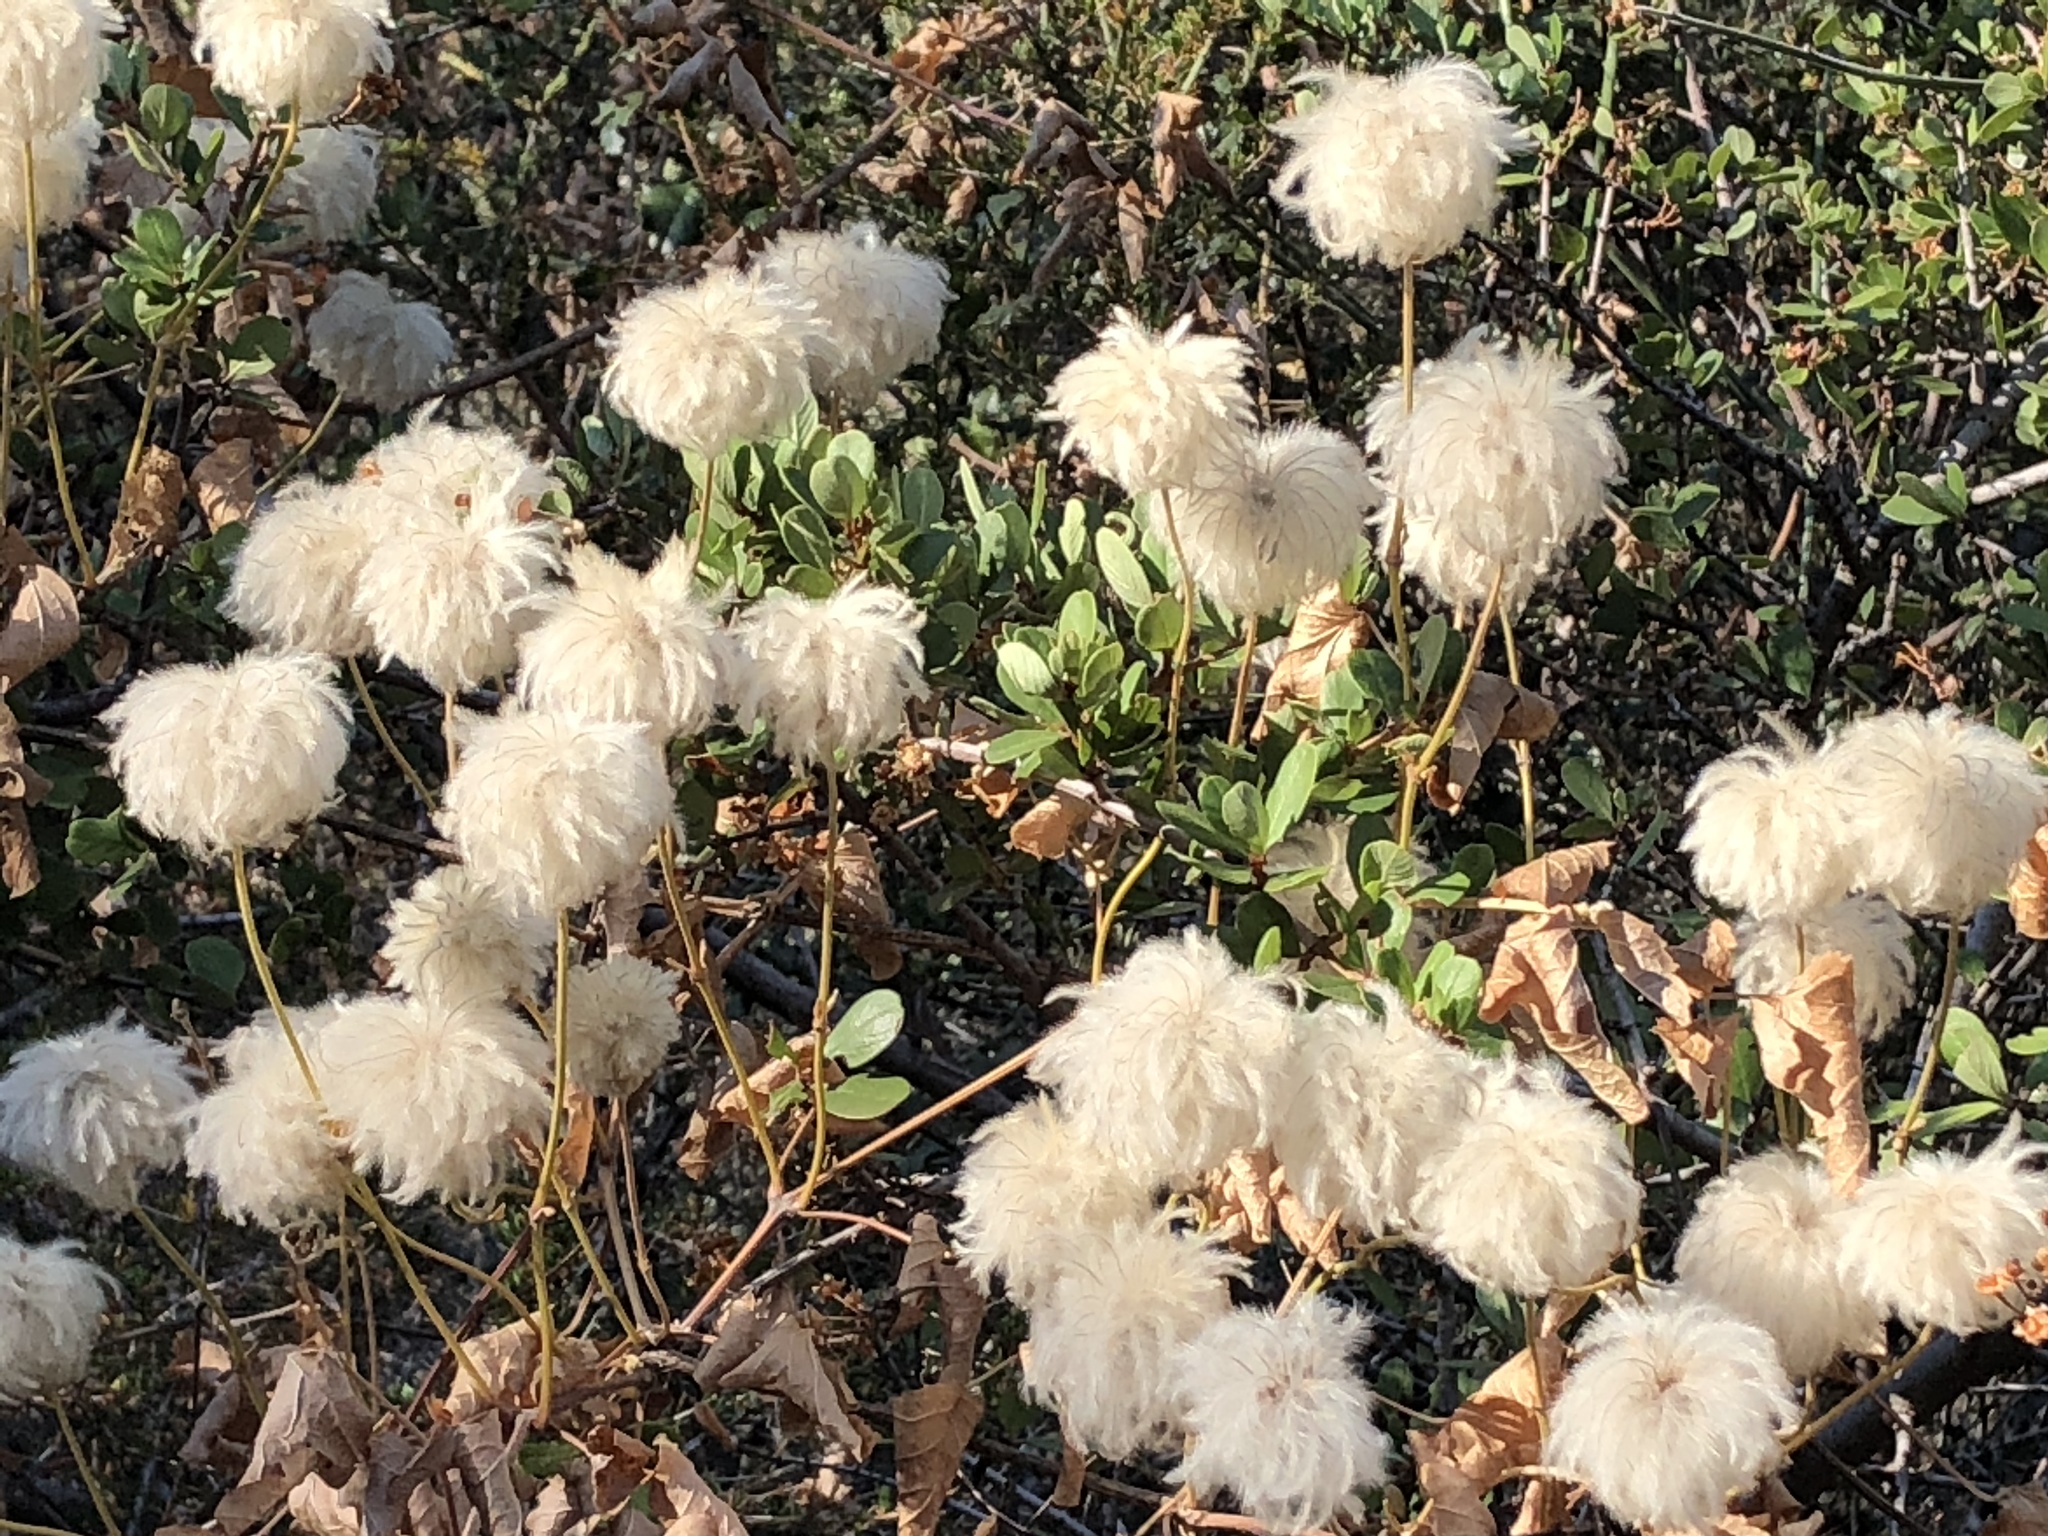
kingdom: Plantae
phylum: Tracheophyta
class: Magnoliopsida
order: Ranunculales
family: Ranunculaceae
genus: Clematis
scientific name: Clematis lasiantha
